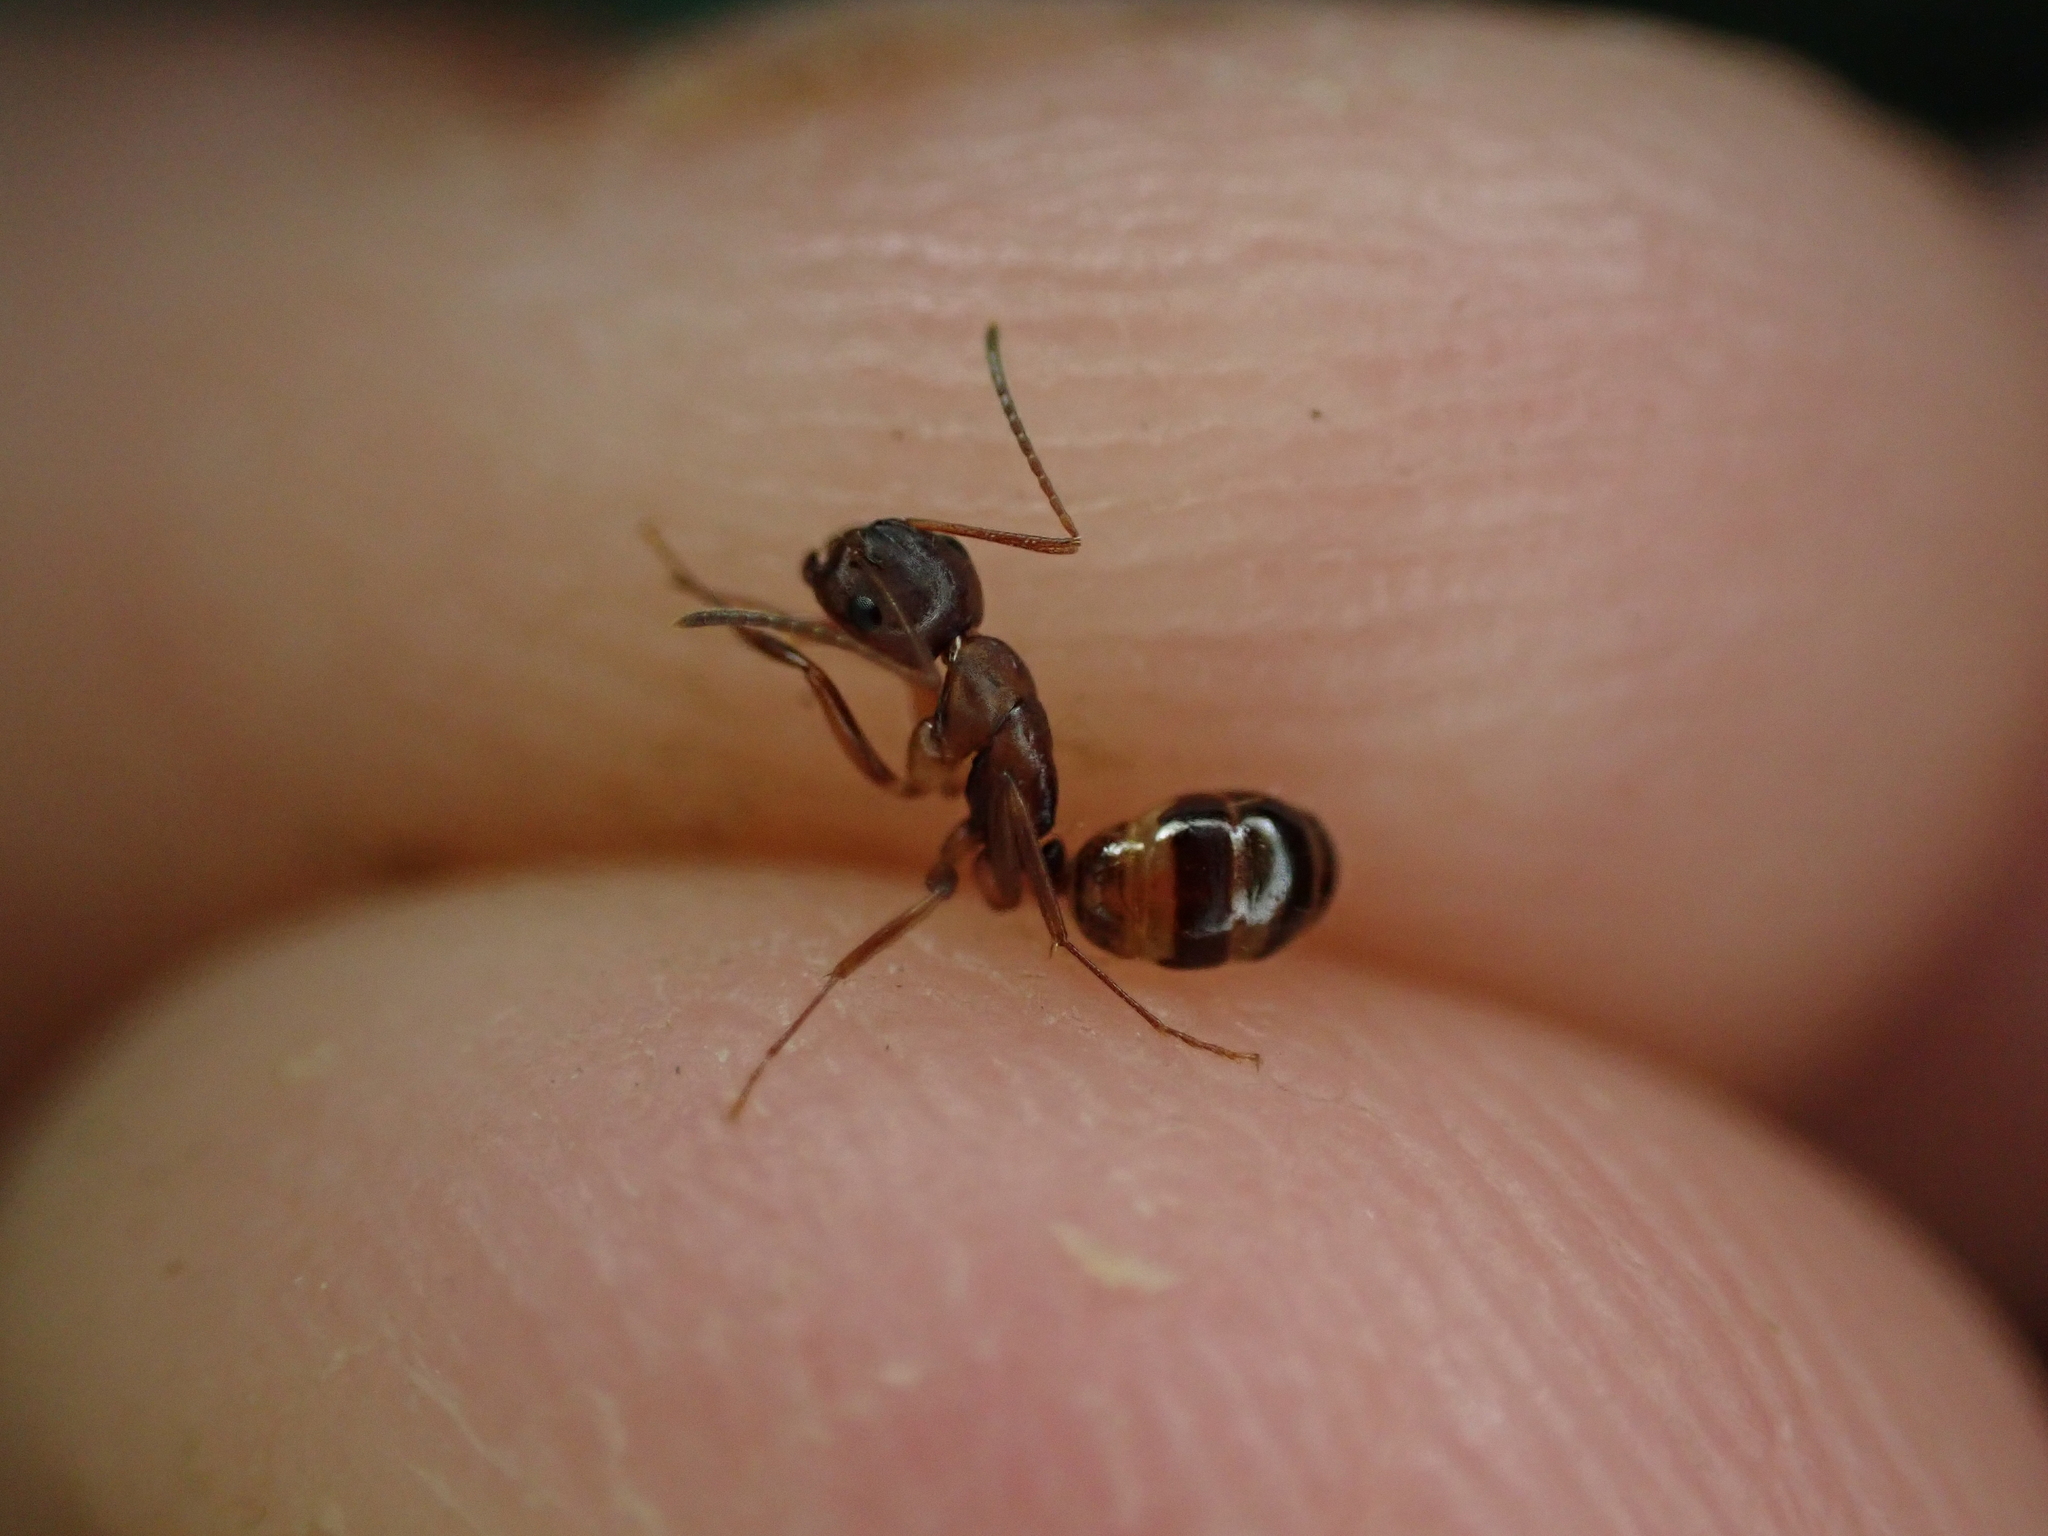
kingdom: Animalia
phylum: Arthropoda
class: Insecta
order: Hymenoptera
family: Formicidae
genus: Camponotus
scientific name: Camponotus subbarbatus
